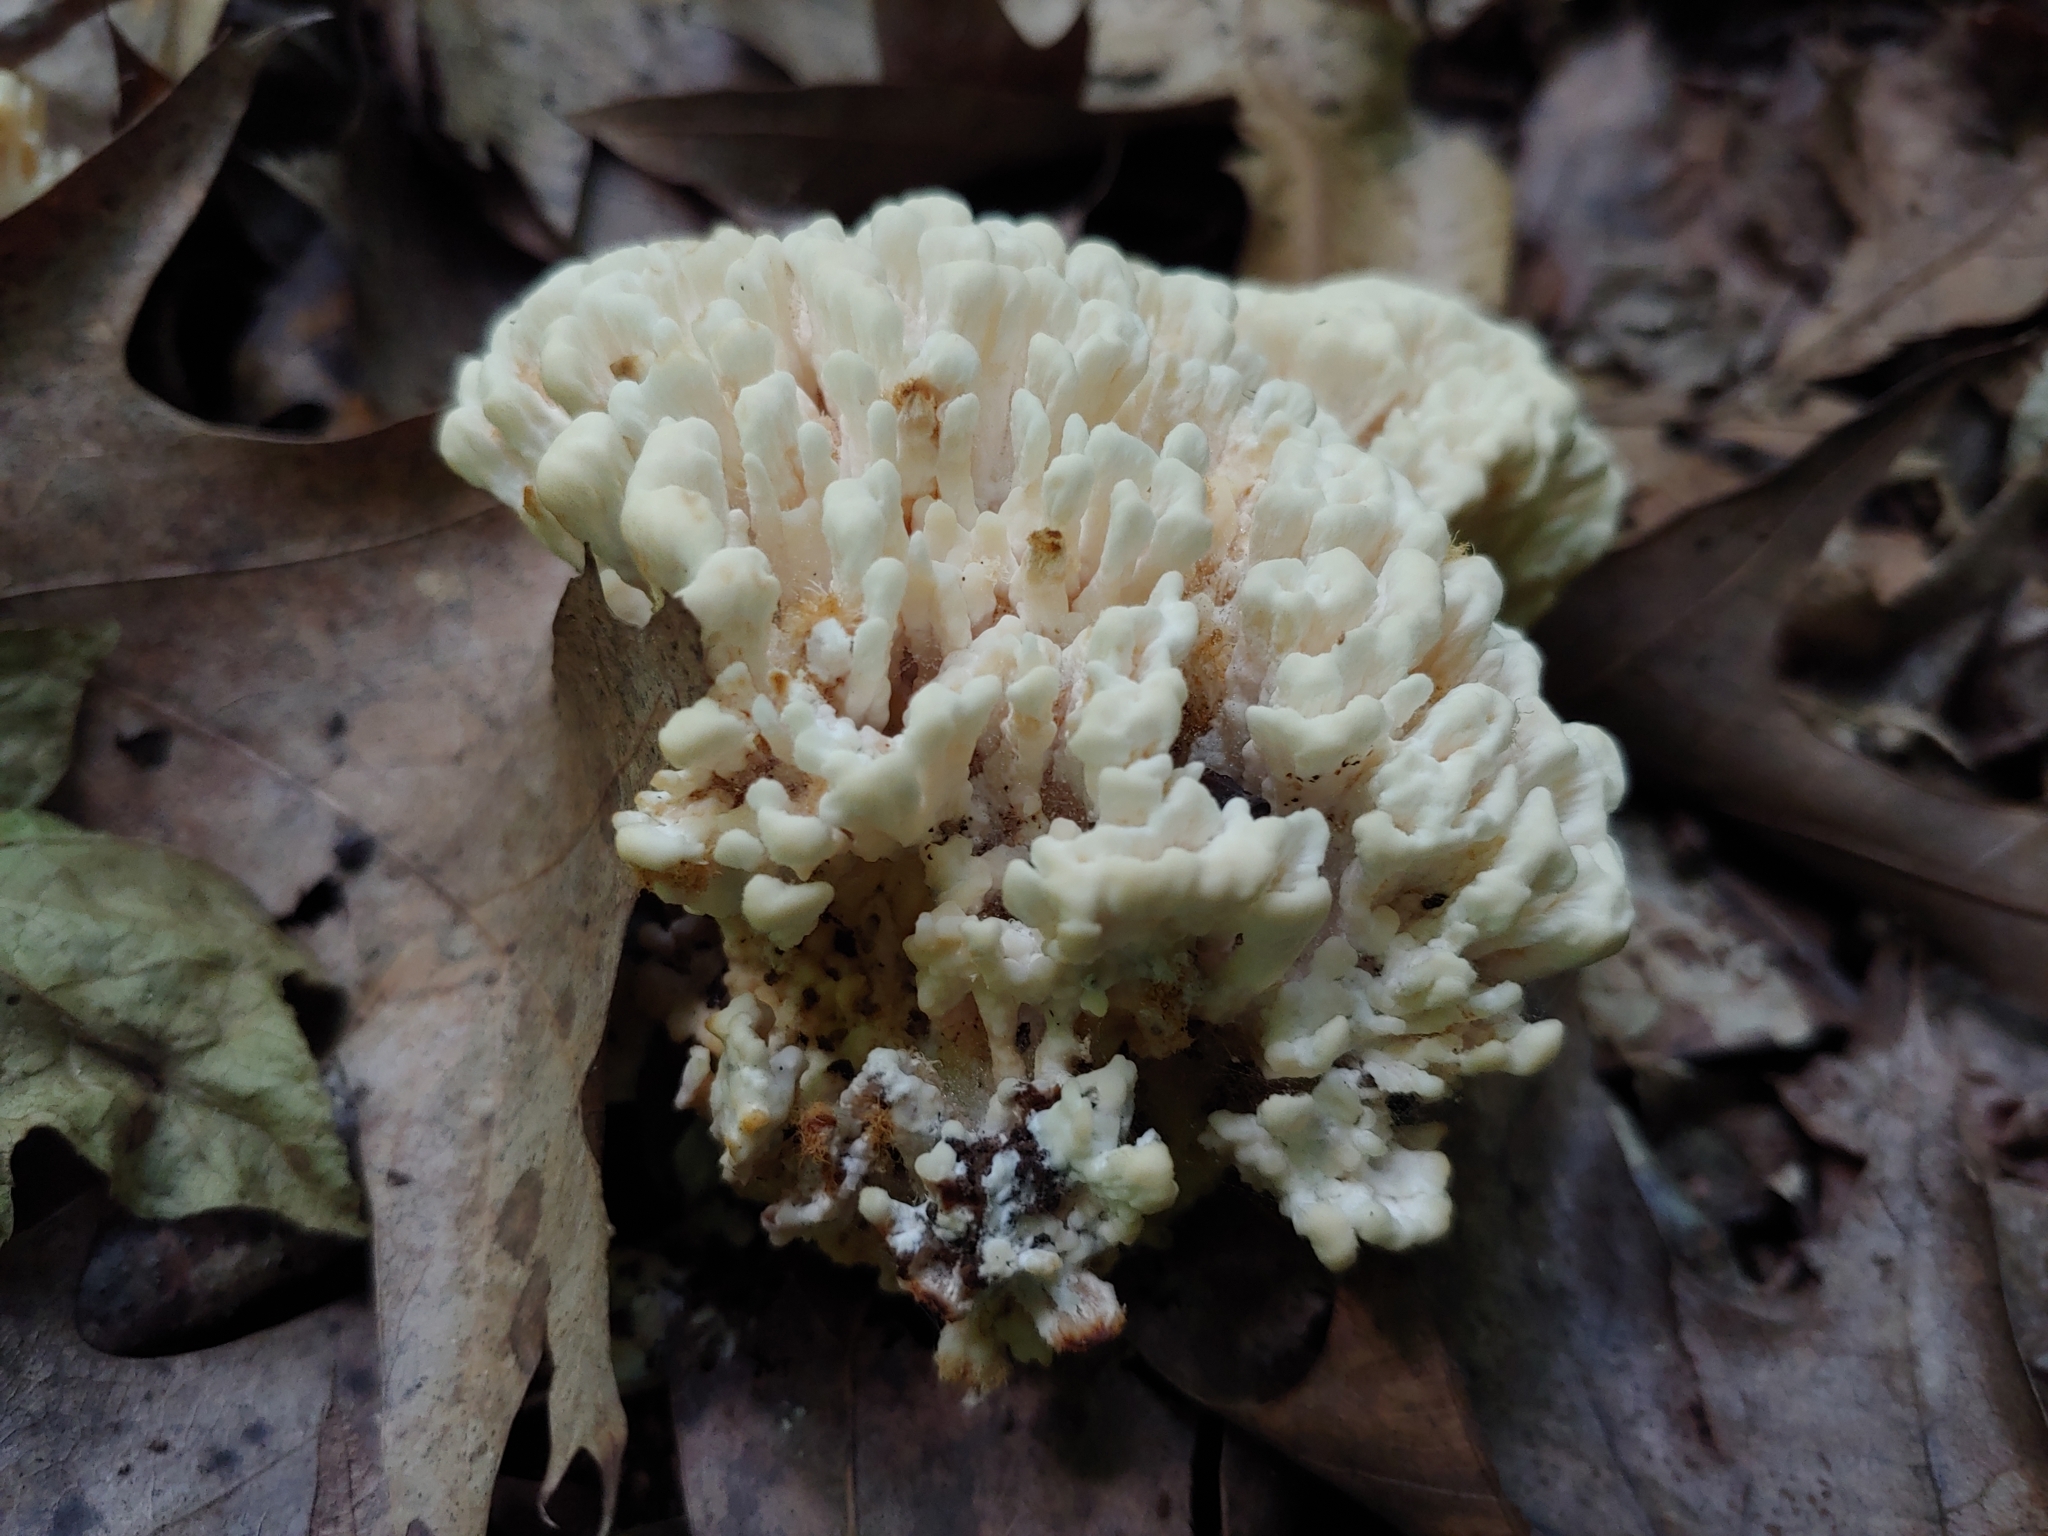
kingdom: Fungi
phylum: Basidiomycota
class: Agaricomycetes
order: Sebacinales
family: Sebacinaceae
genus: Sebacina
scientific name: Sebacina schweinitzii
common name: Jellied false coral fungus
